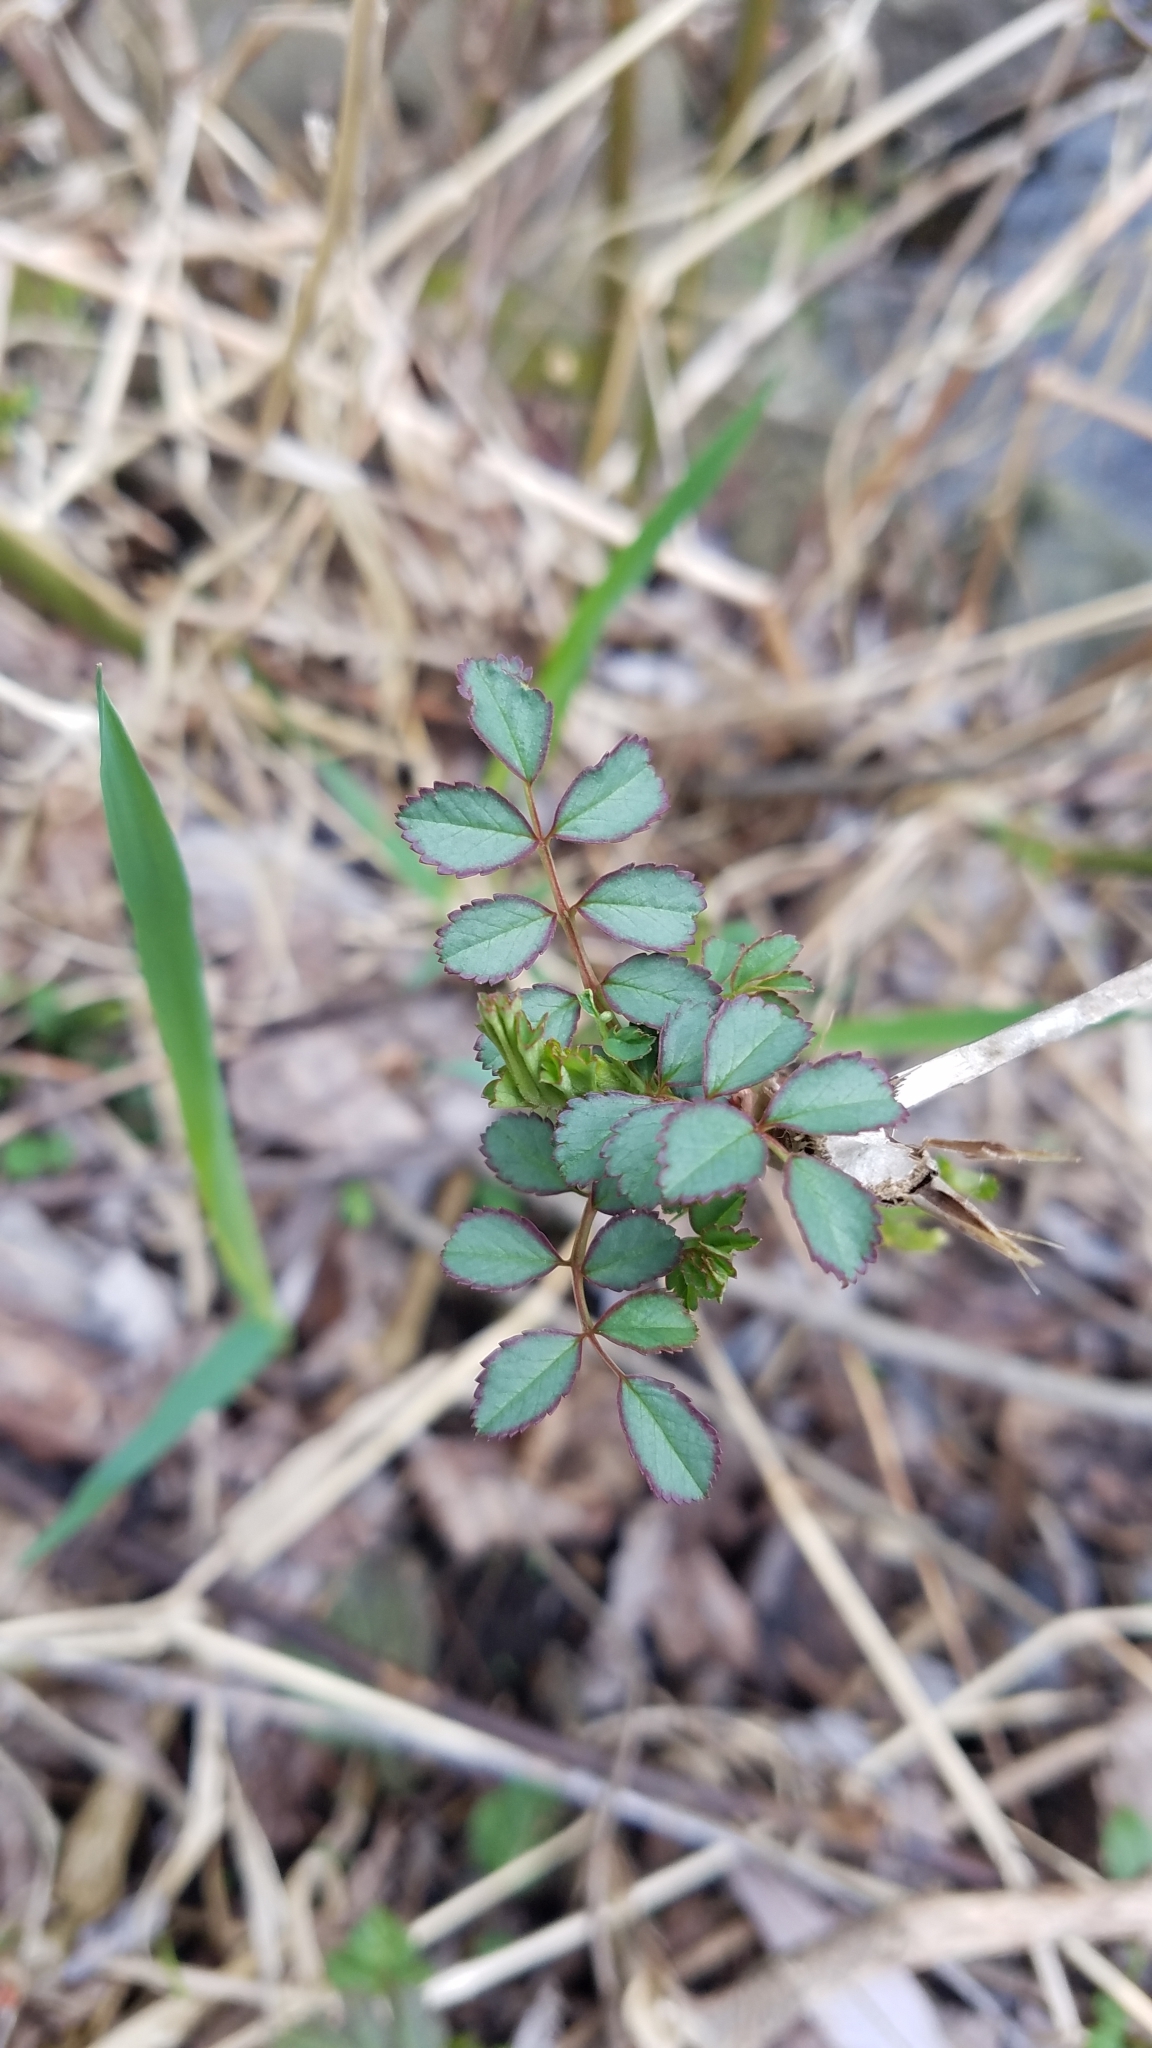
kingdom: Plantae
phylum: Tracheophyta
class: Magnoliopsida
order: Rosales
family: Rosaceae
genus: Rosa
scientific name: Rosa multiflora
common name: Multiflora rose
